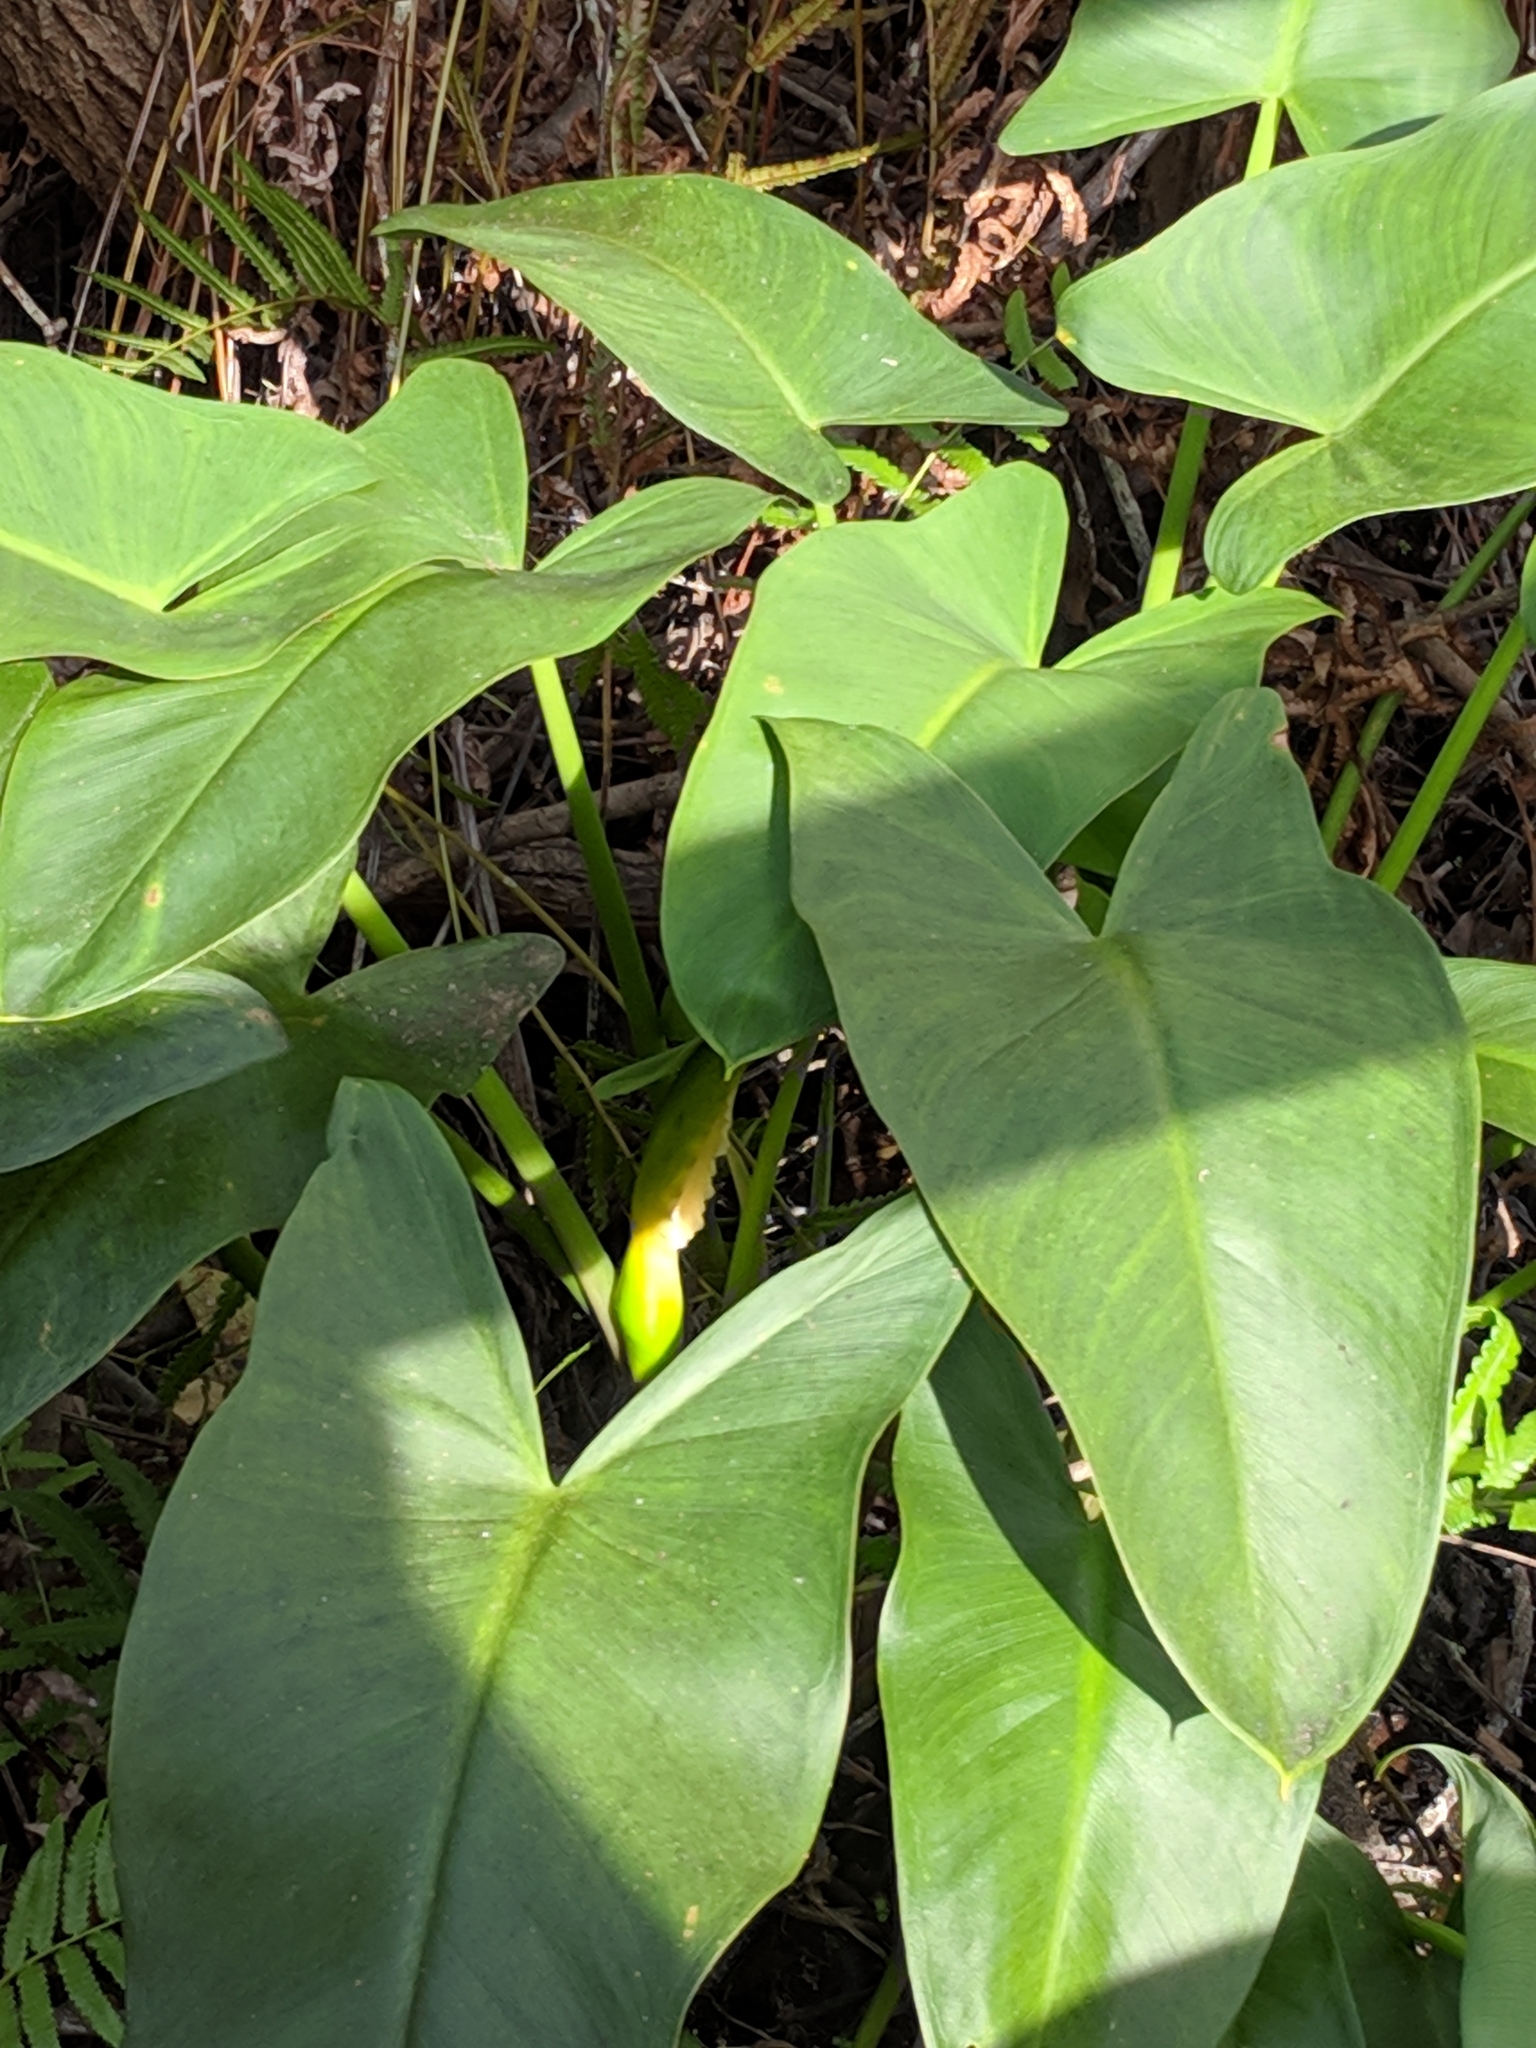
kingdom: Plantae
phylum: Tracheophyta
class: Liliopsida
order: Alismatales
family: Araceae
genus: Peltandra
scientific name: Peltandra virginica
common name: Arrow arum
